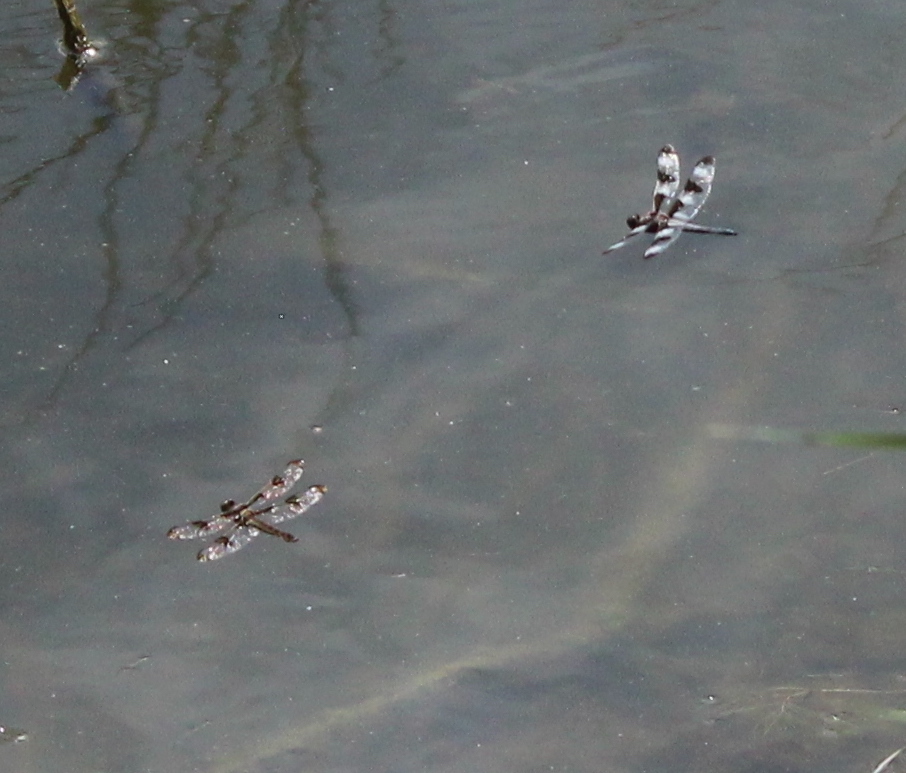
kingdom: Animalia
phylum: Arthropoda
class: Insecta
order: Odonata
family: Libellulidae
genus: Libellula
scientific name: Libellula pulchella
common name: Twelve-spotted skimmer
